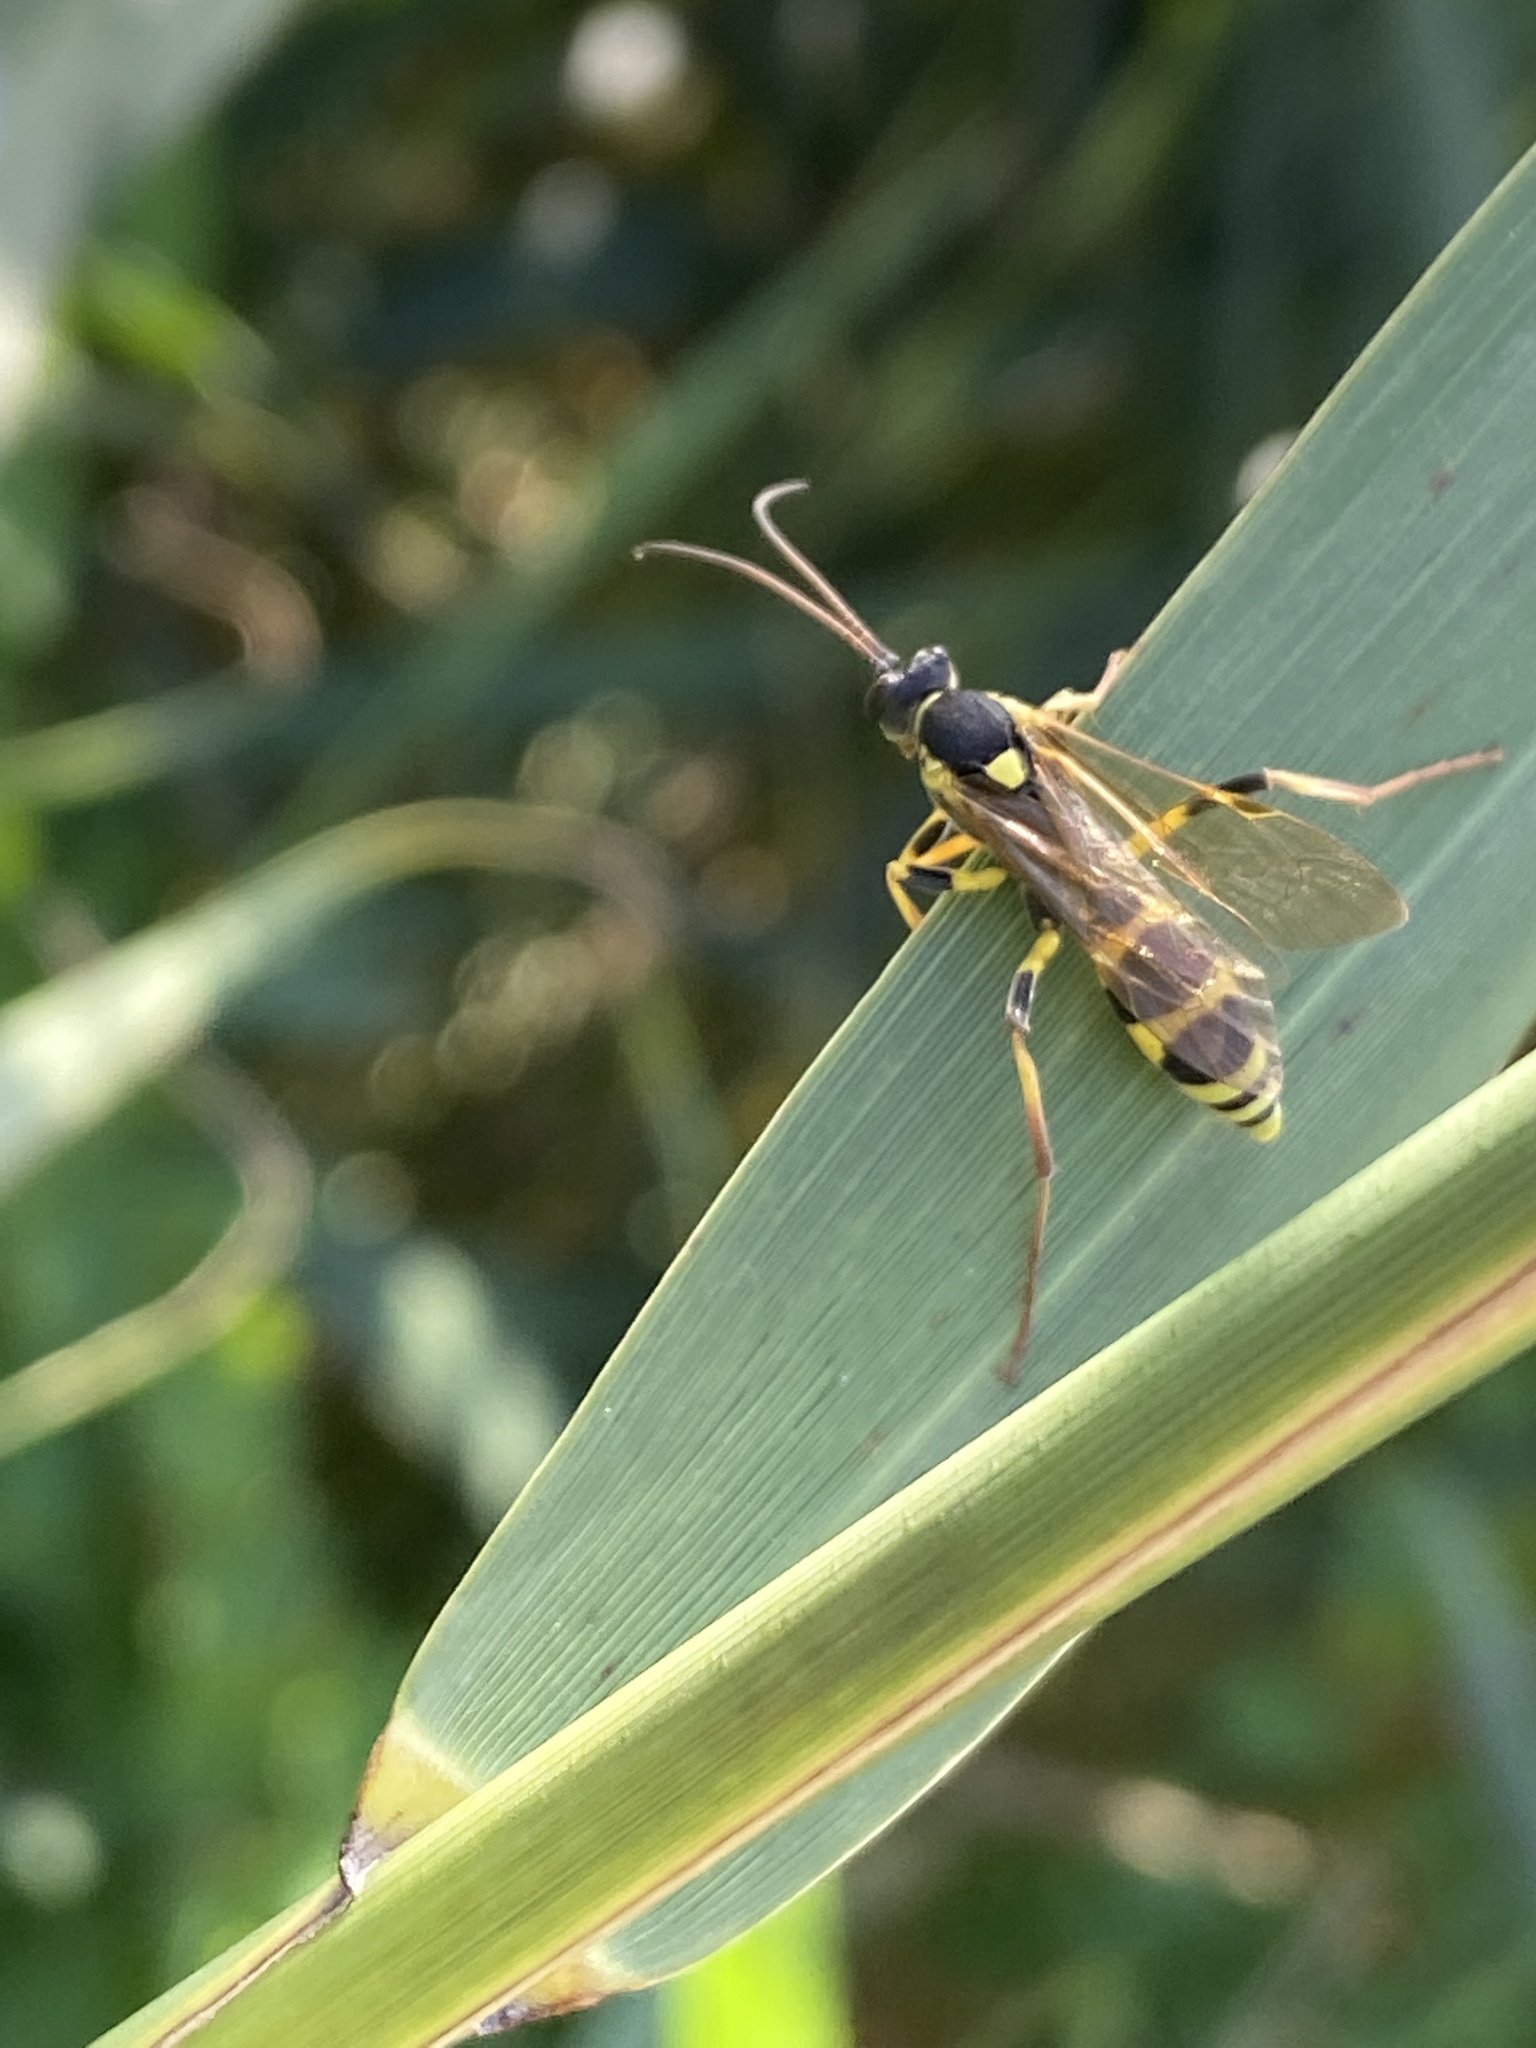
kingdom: Animalia
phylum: Arthropoda
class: Insecta
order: Hymenoptera
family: Ichneumonidae
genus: Amblyteles
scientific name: Amblyteles armatorius
